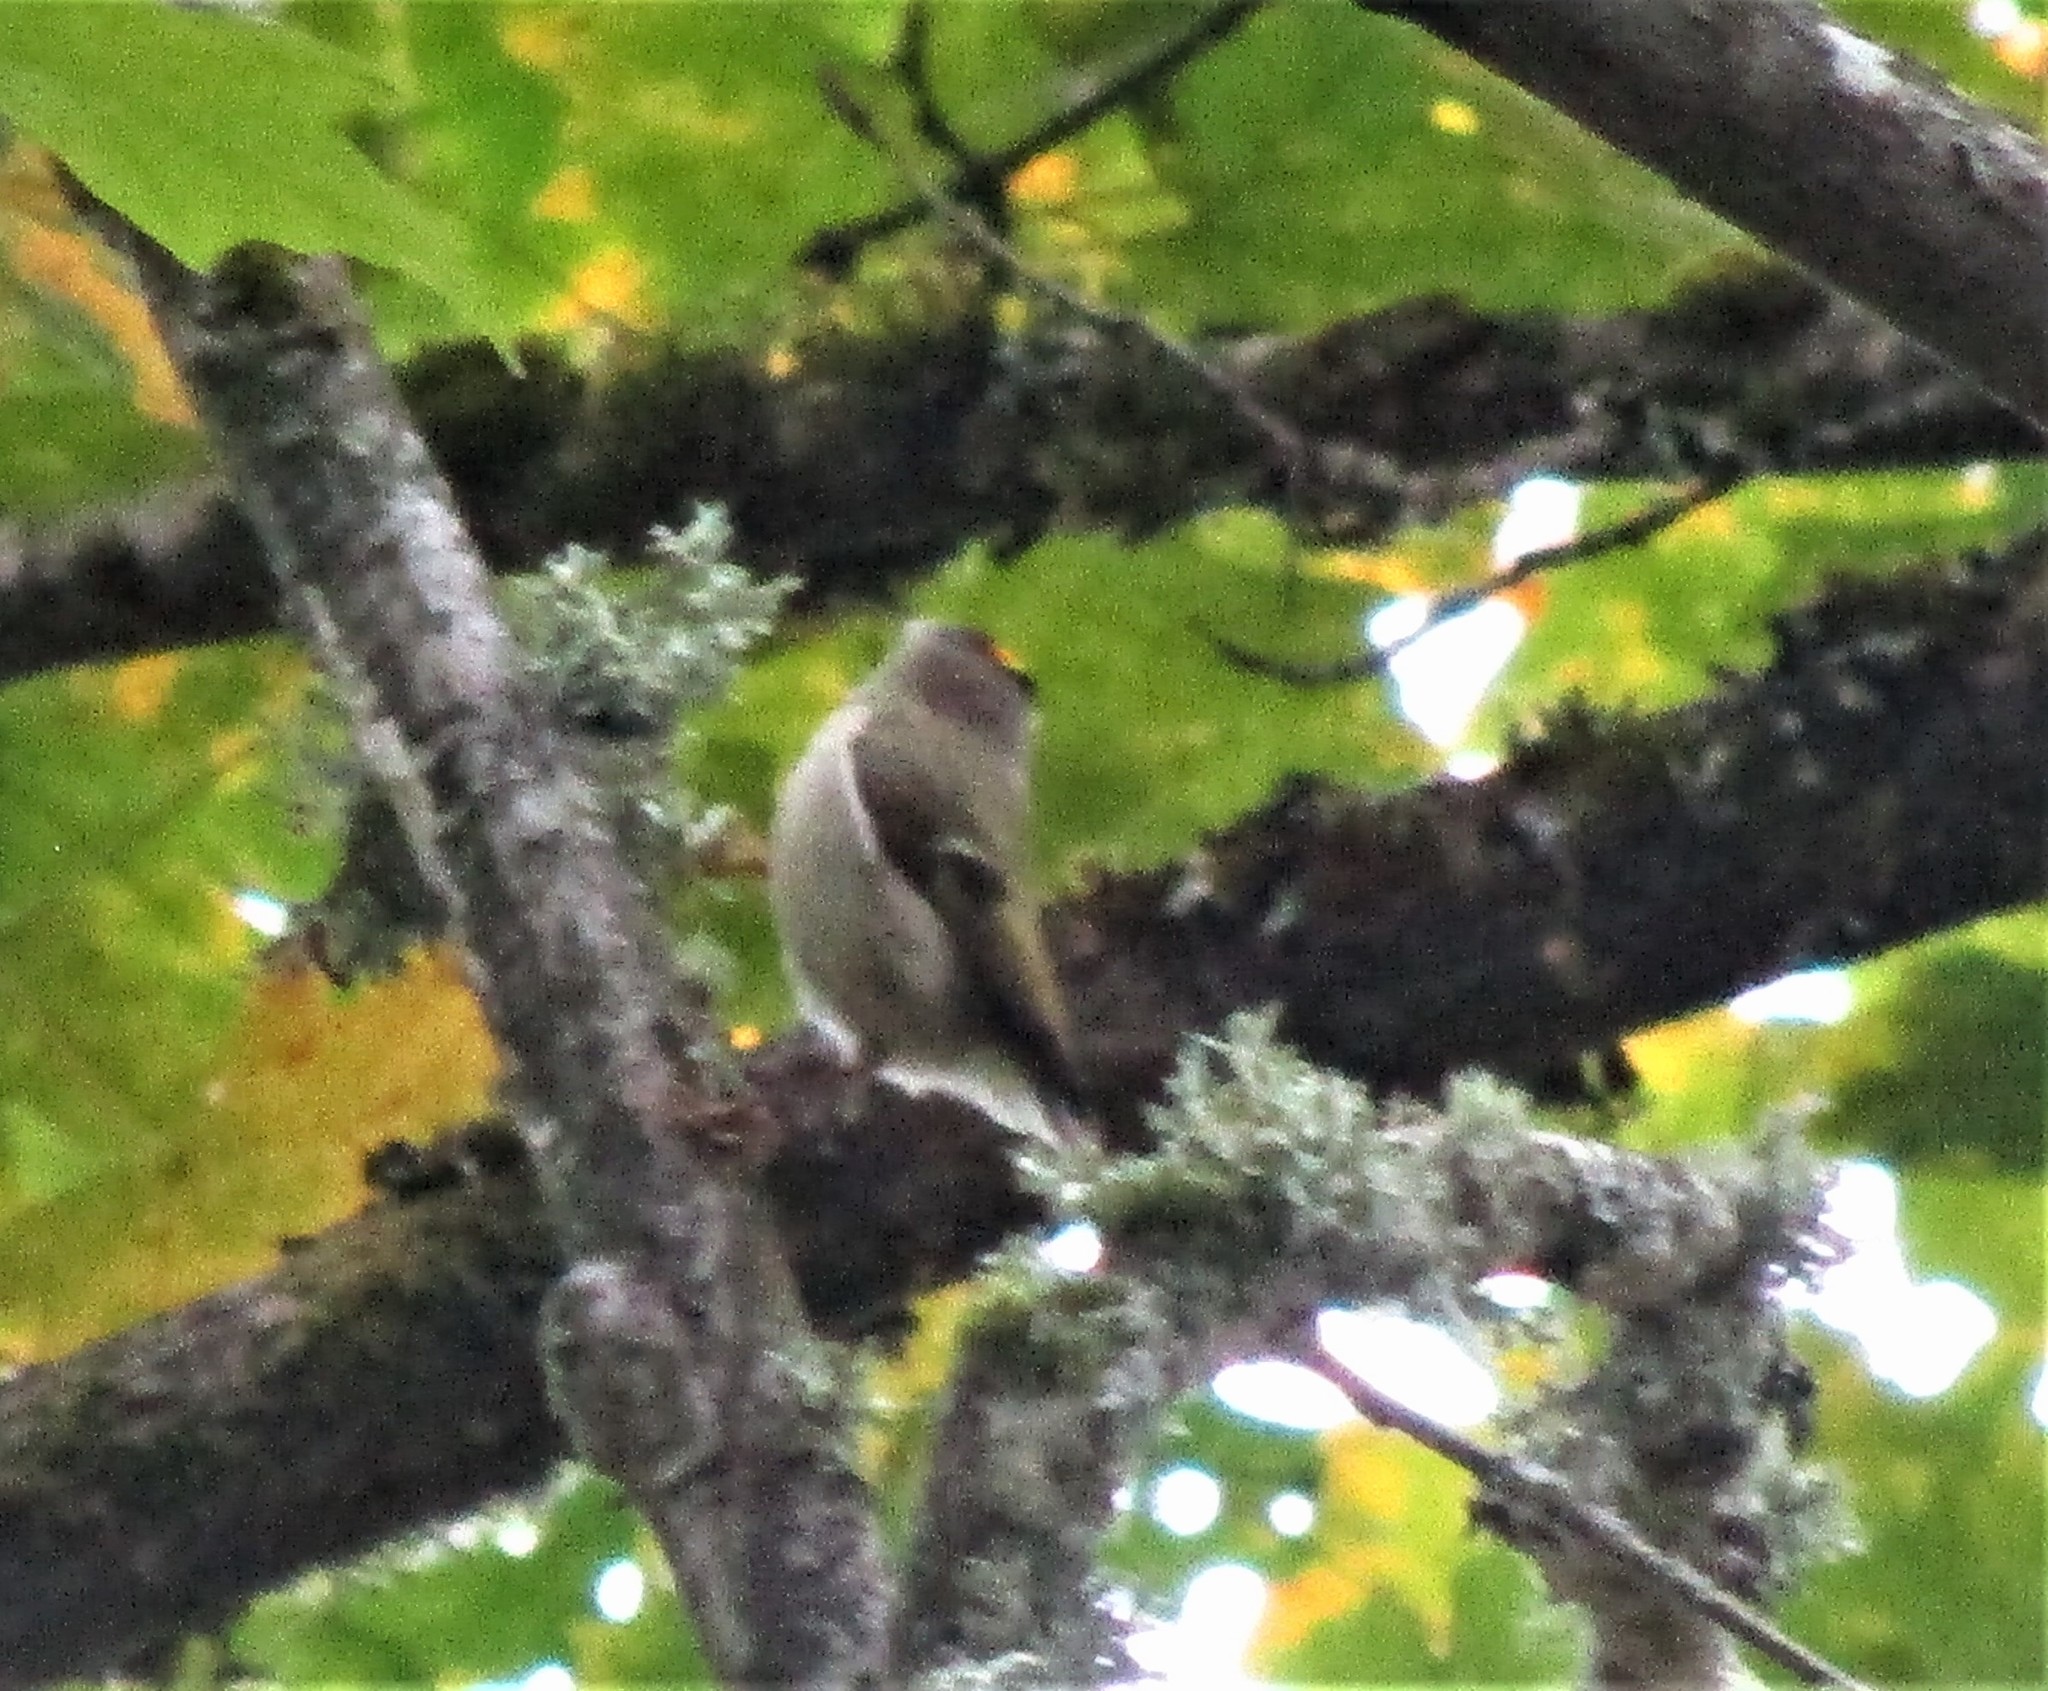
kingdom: Animalia
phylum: Chordata
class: Aves
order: Passeriformes
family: Regulidae
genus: Regulus
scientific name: Regulus satrapa
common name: Golden-crowned kinglet
